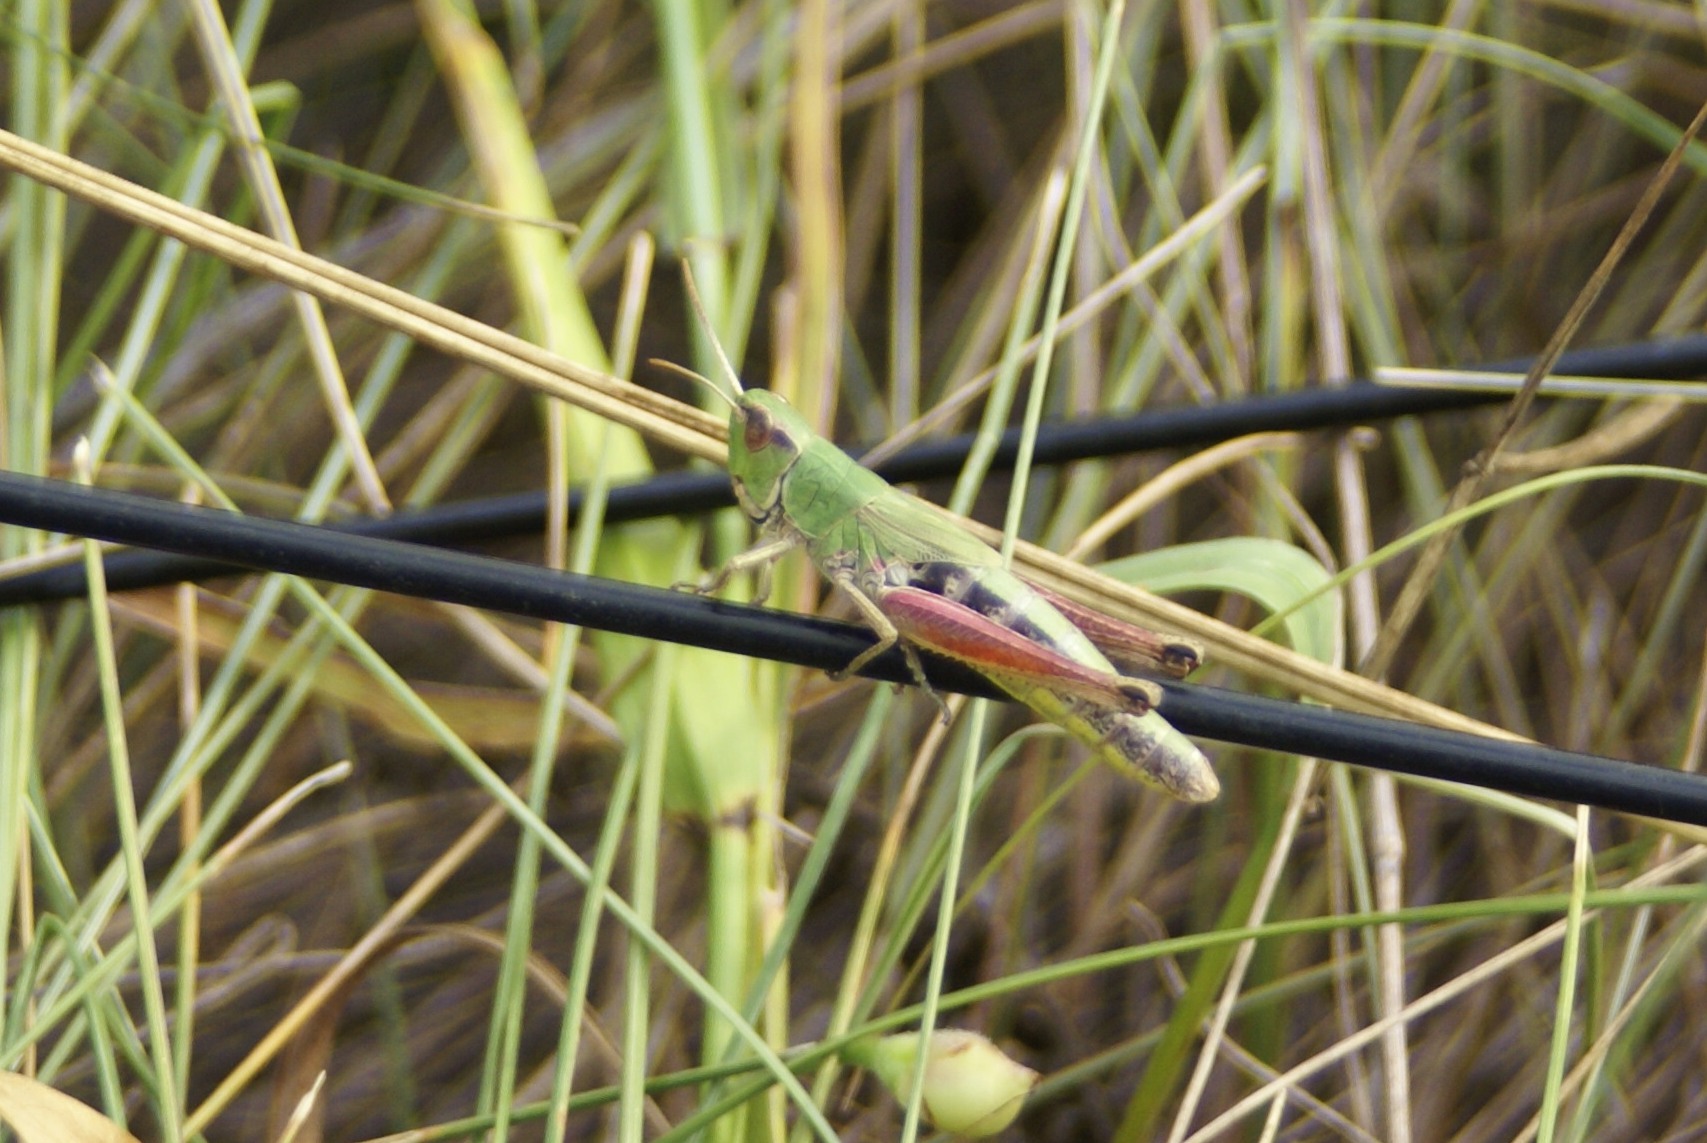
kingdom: Animalia
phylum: Arthropoda
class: Insecta
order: Orthoptera
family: Acrididae
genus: Pseudochorthippus
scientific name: Pseudochorthippus parallelus
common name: Meadow grasshopper
